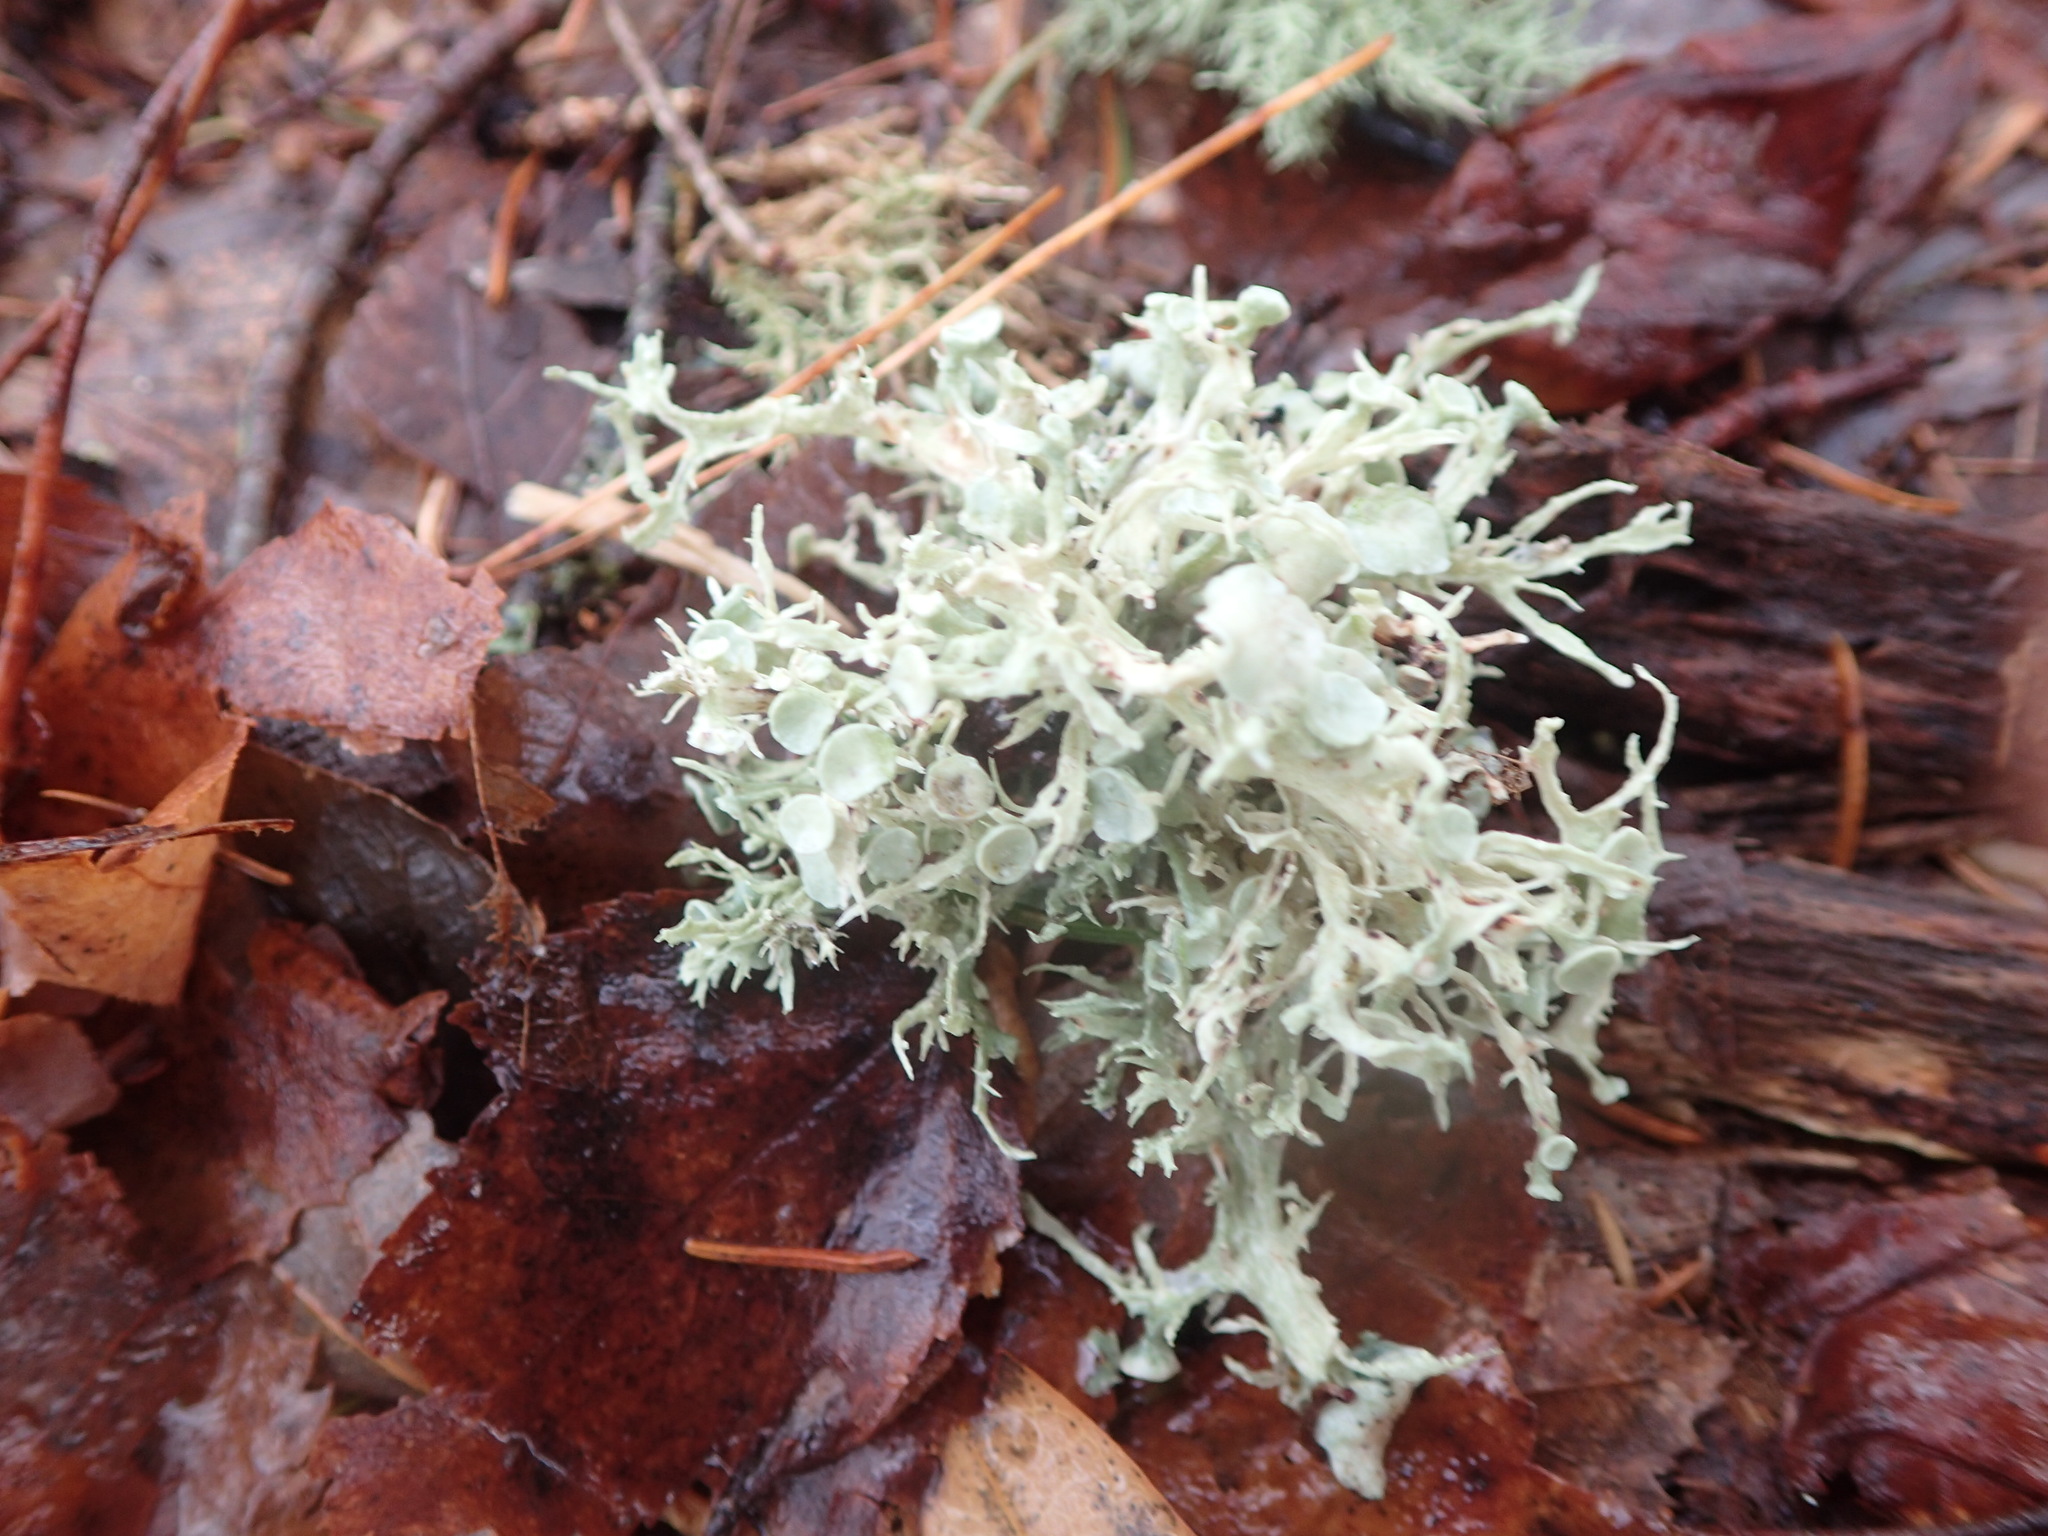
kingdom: Fungi
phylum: Ascomycota
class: Lecanoromycetes
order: Lecanorales
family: Ramalinaceae
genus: Ramalina
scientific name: Ramalina americana
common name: Sinewed bush lichen
